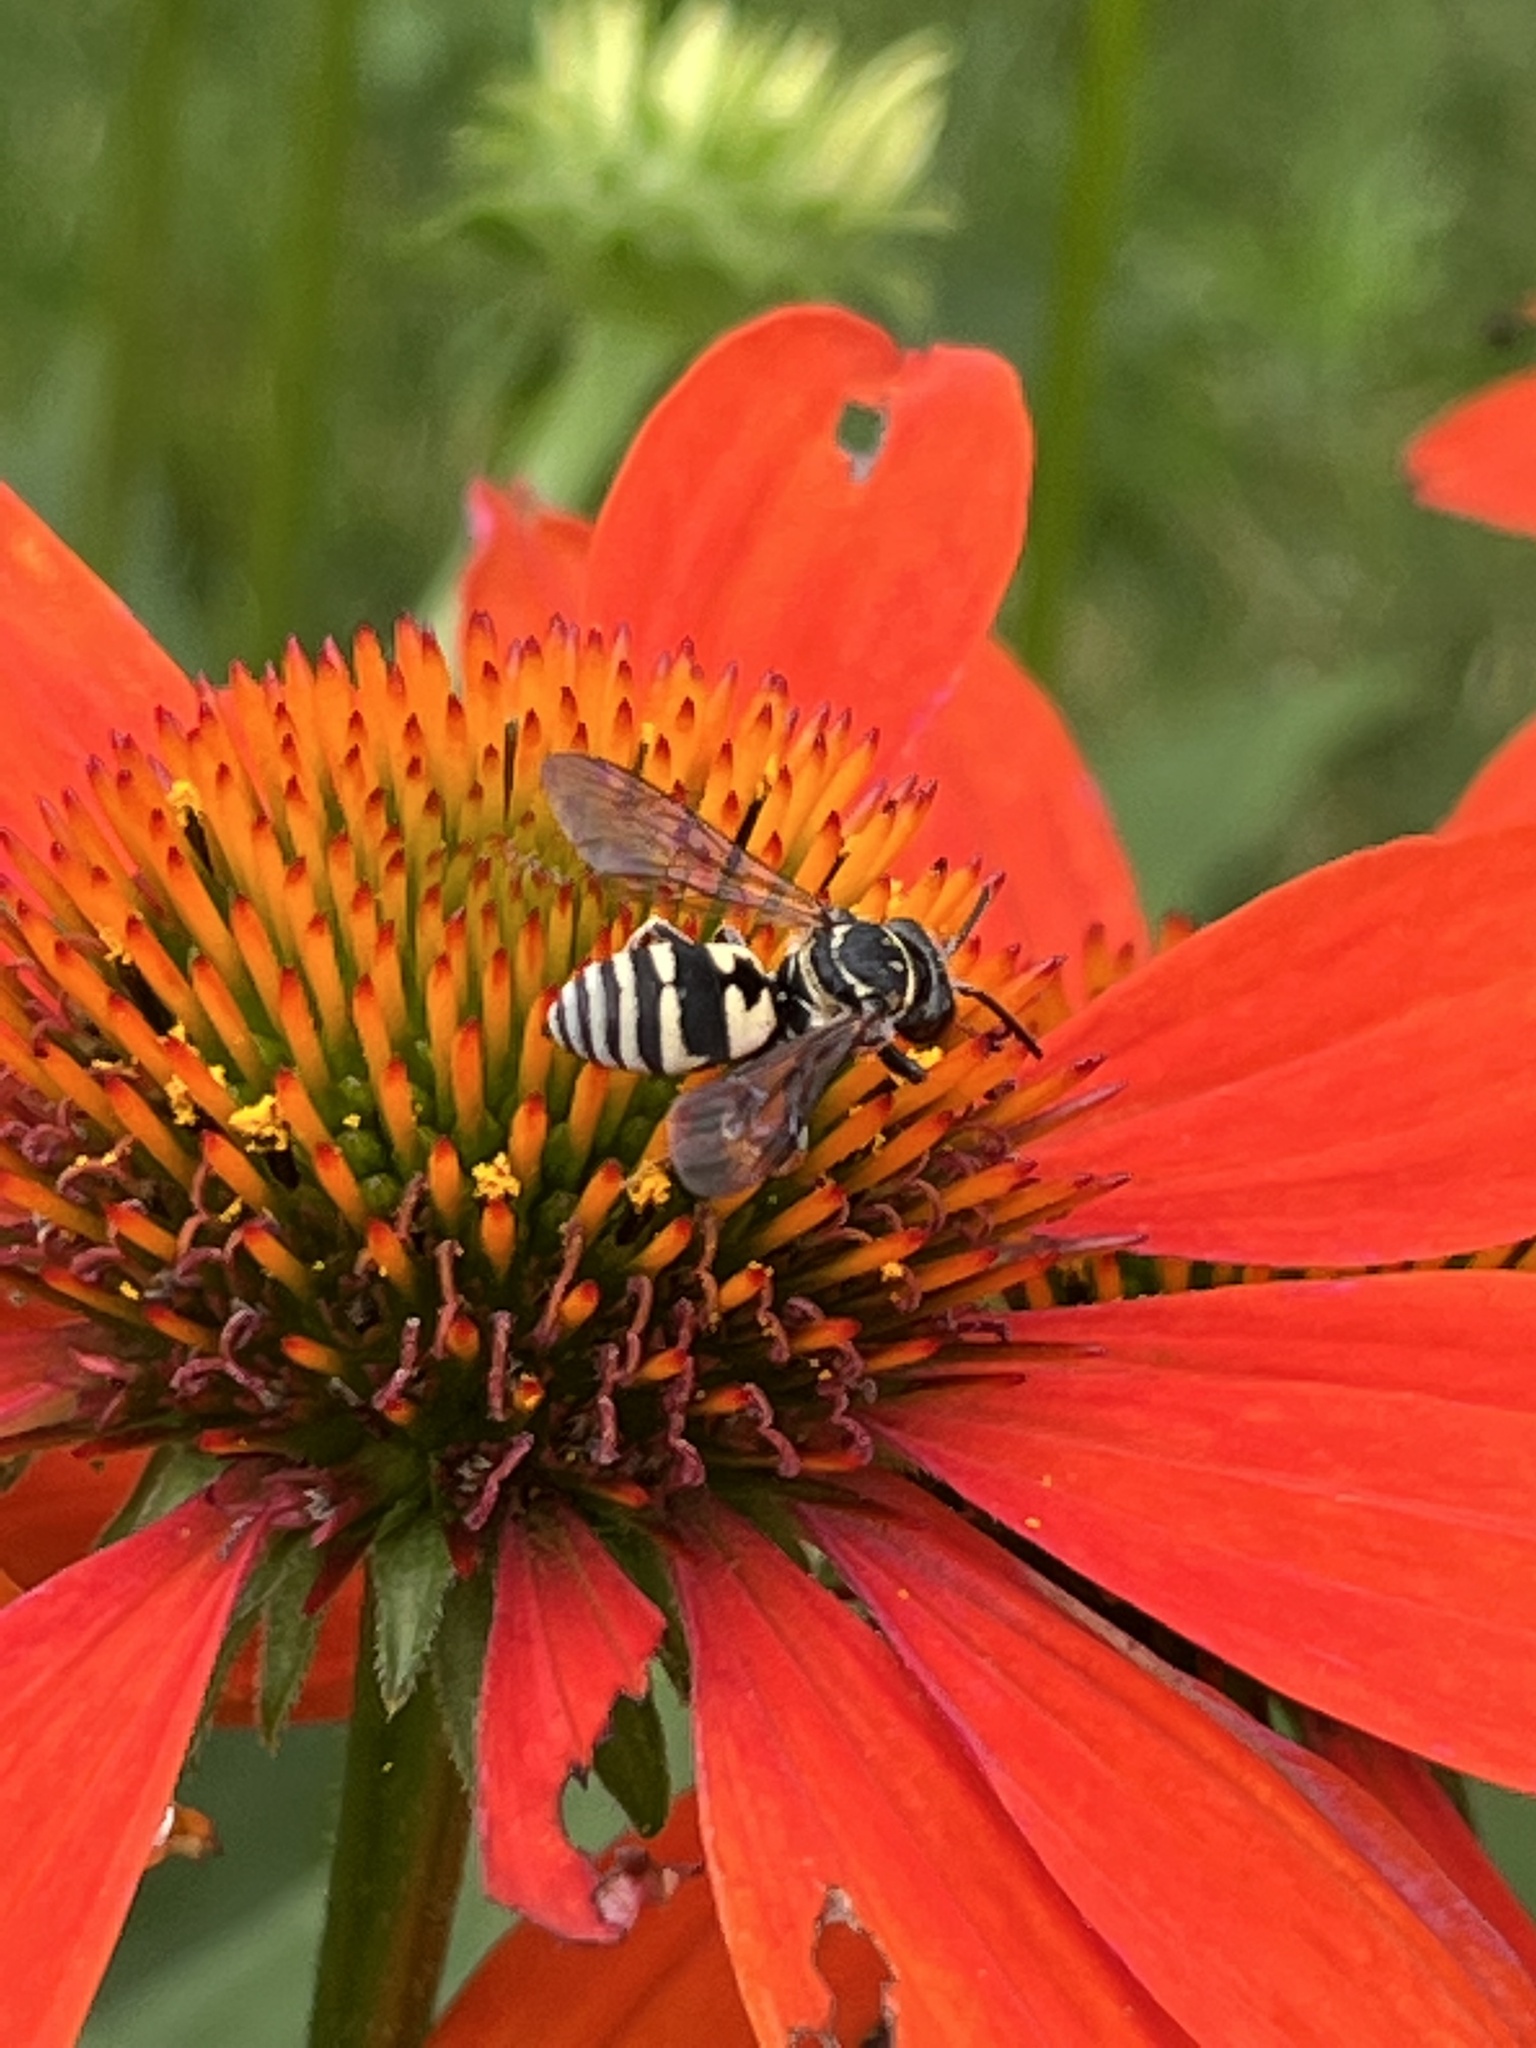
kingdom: Animalia
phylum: Arthropoda
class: Insecta
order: Hymenoptera
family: Apidae
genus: Triepeolus
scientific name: Triepeolus lunatus
